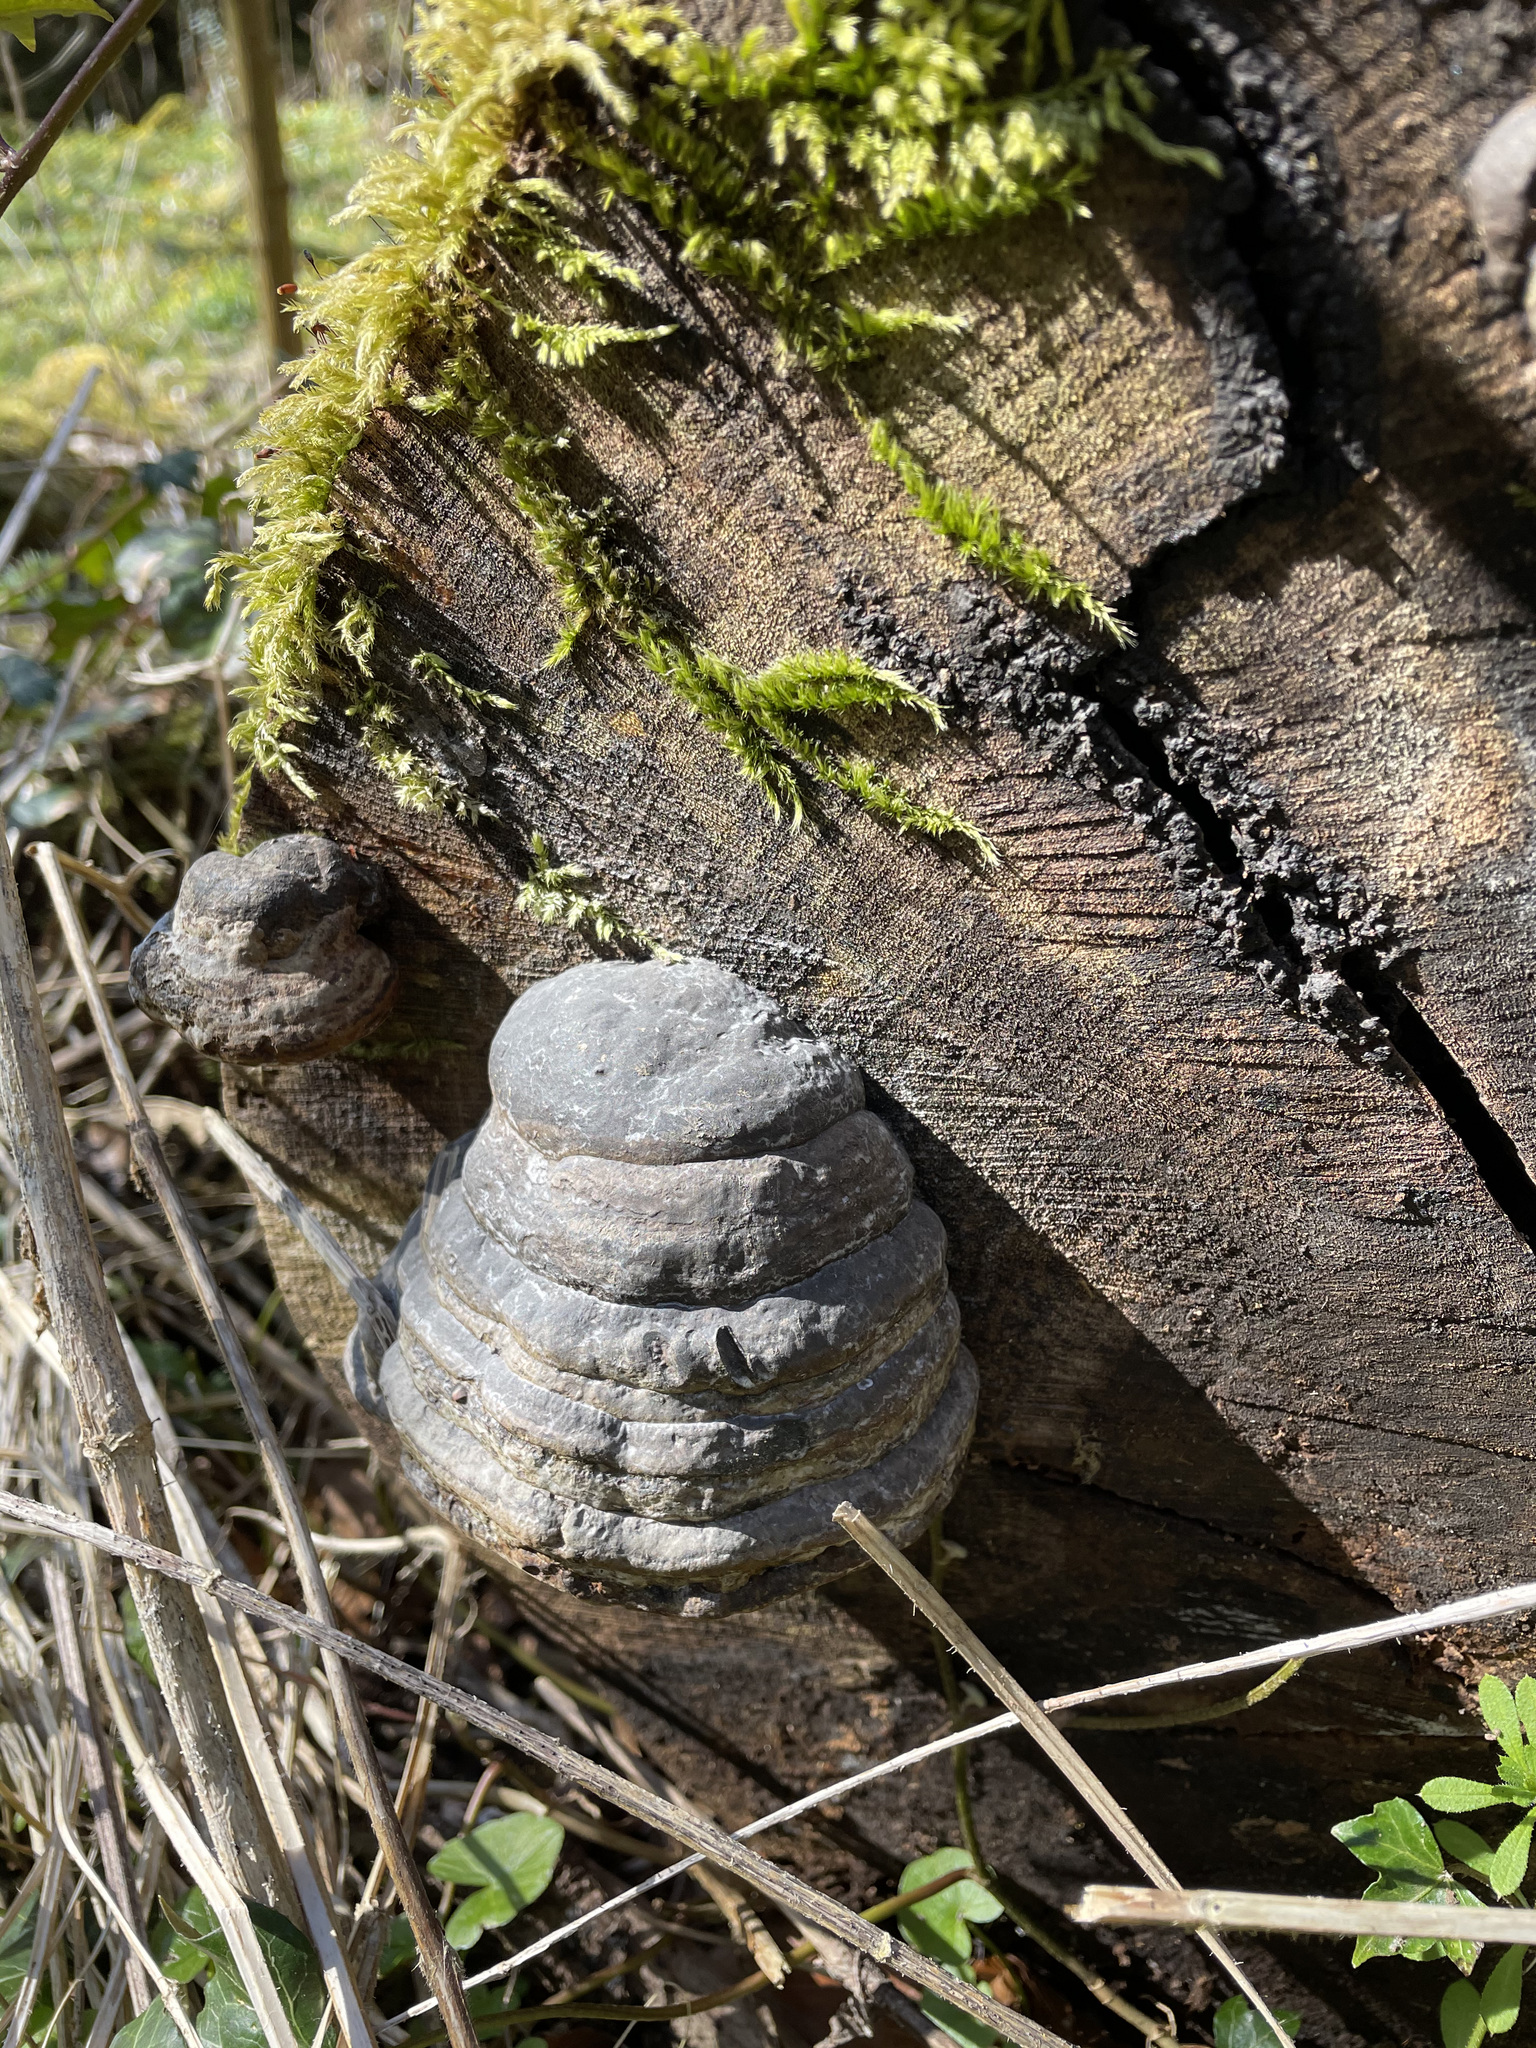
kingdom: Fungi
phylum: Basidiomycota
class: Agaricomycetes
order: Polyporales
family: Polyporaceae
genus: Fomes
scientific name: Fomes fomentarius
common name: Hoof fungus
